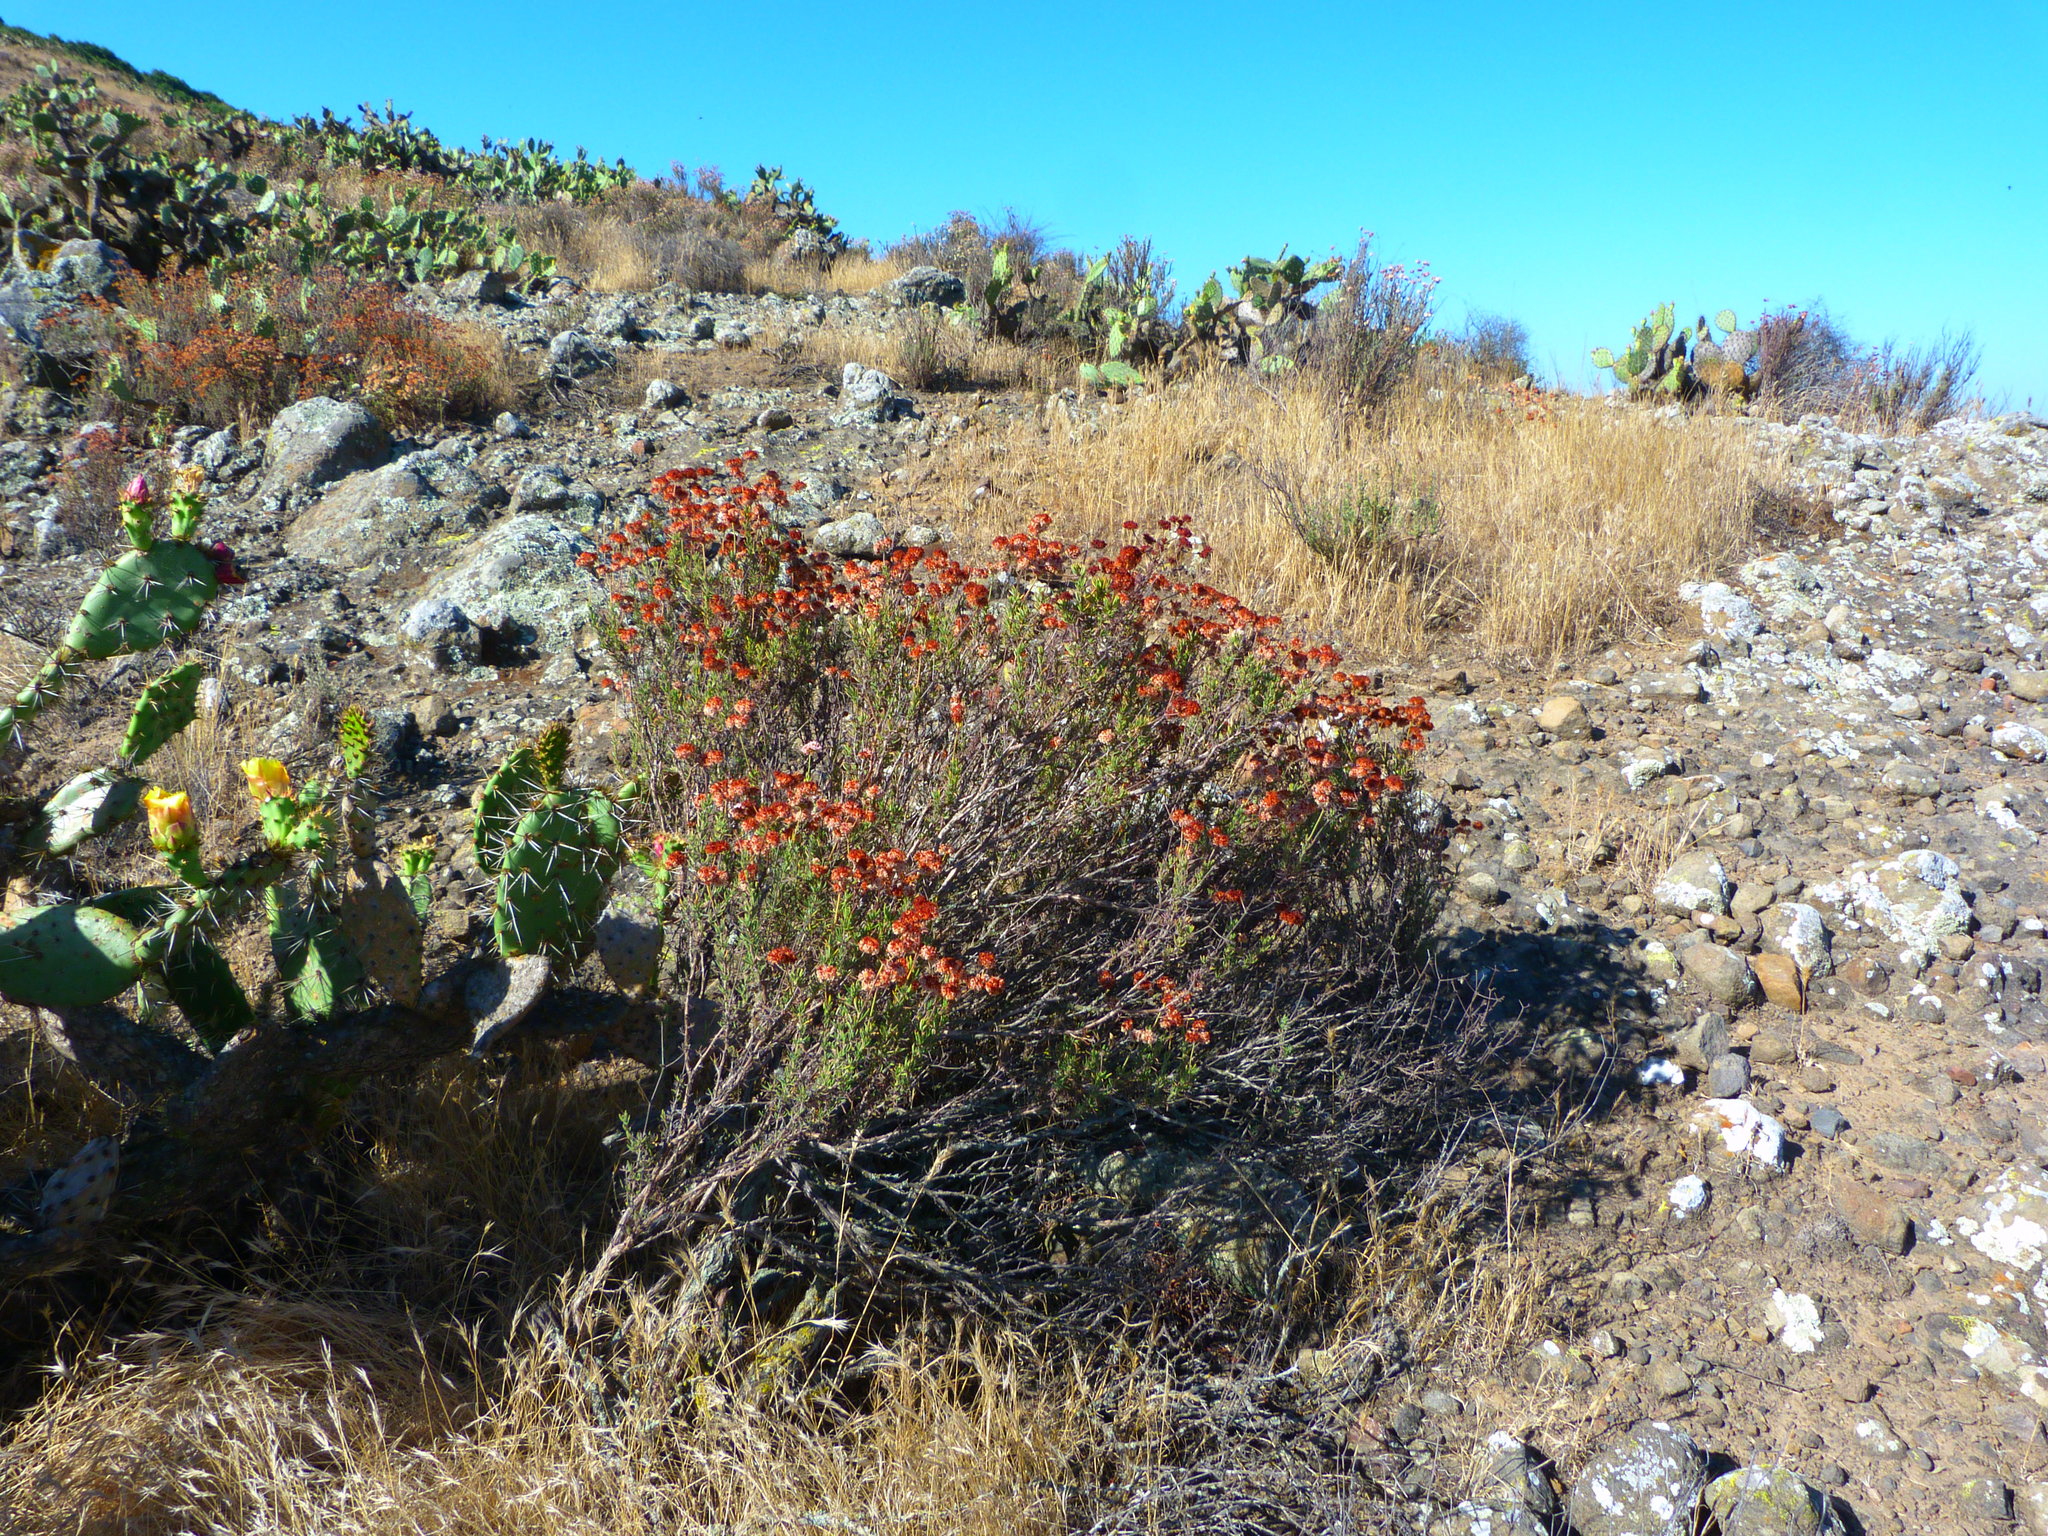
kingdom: Plantae
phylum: Tracheophyta
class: Magnoliopsida
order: Caryophyllales
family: Polygonaceae
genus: Eriogonum
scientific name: Eriogonum fasciculatum
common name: California wild buckwheat
